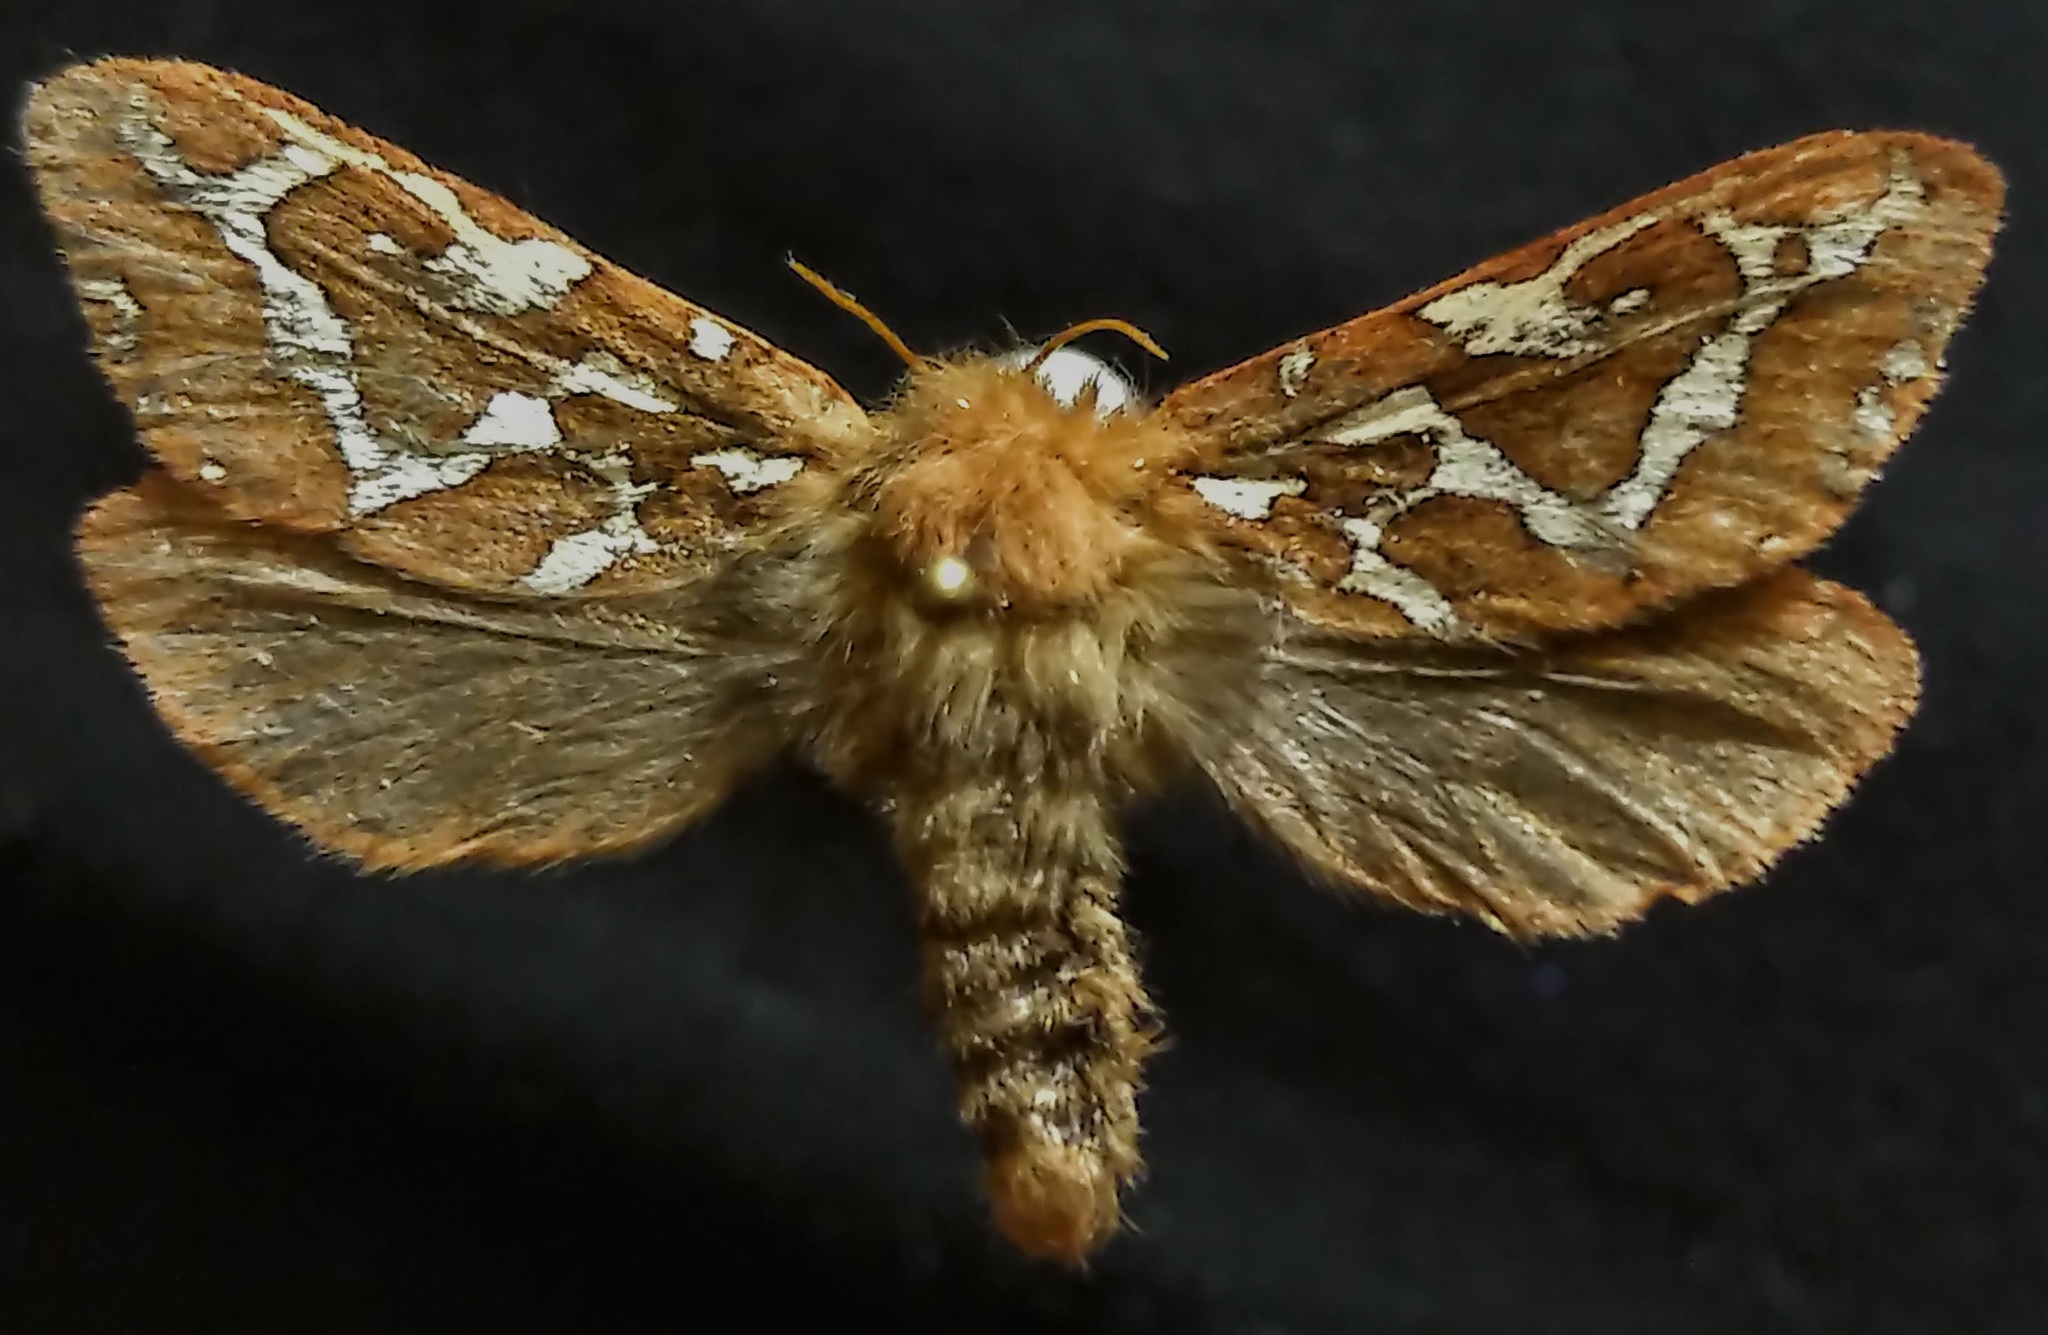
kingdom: Animalia
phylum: Arthropoda
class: Insecta
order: Lepidoptera
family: Hepialidae
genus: Gazoryctra
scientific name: Gazoryctra hyperboreus
